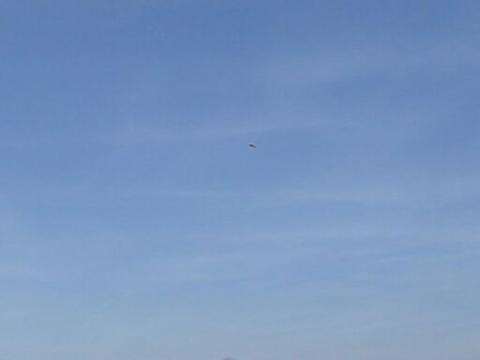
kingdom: Animalia
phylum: Chordata
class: Aves
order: Falconiformes
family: Falconidae
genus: Falco
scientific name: Falco sparverius
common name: American kestrel
